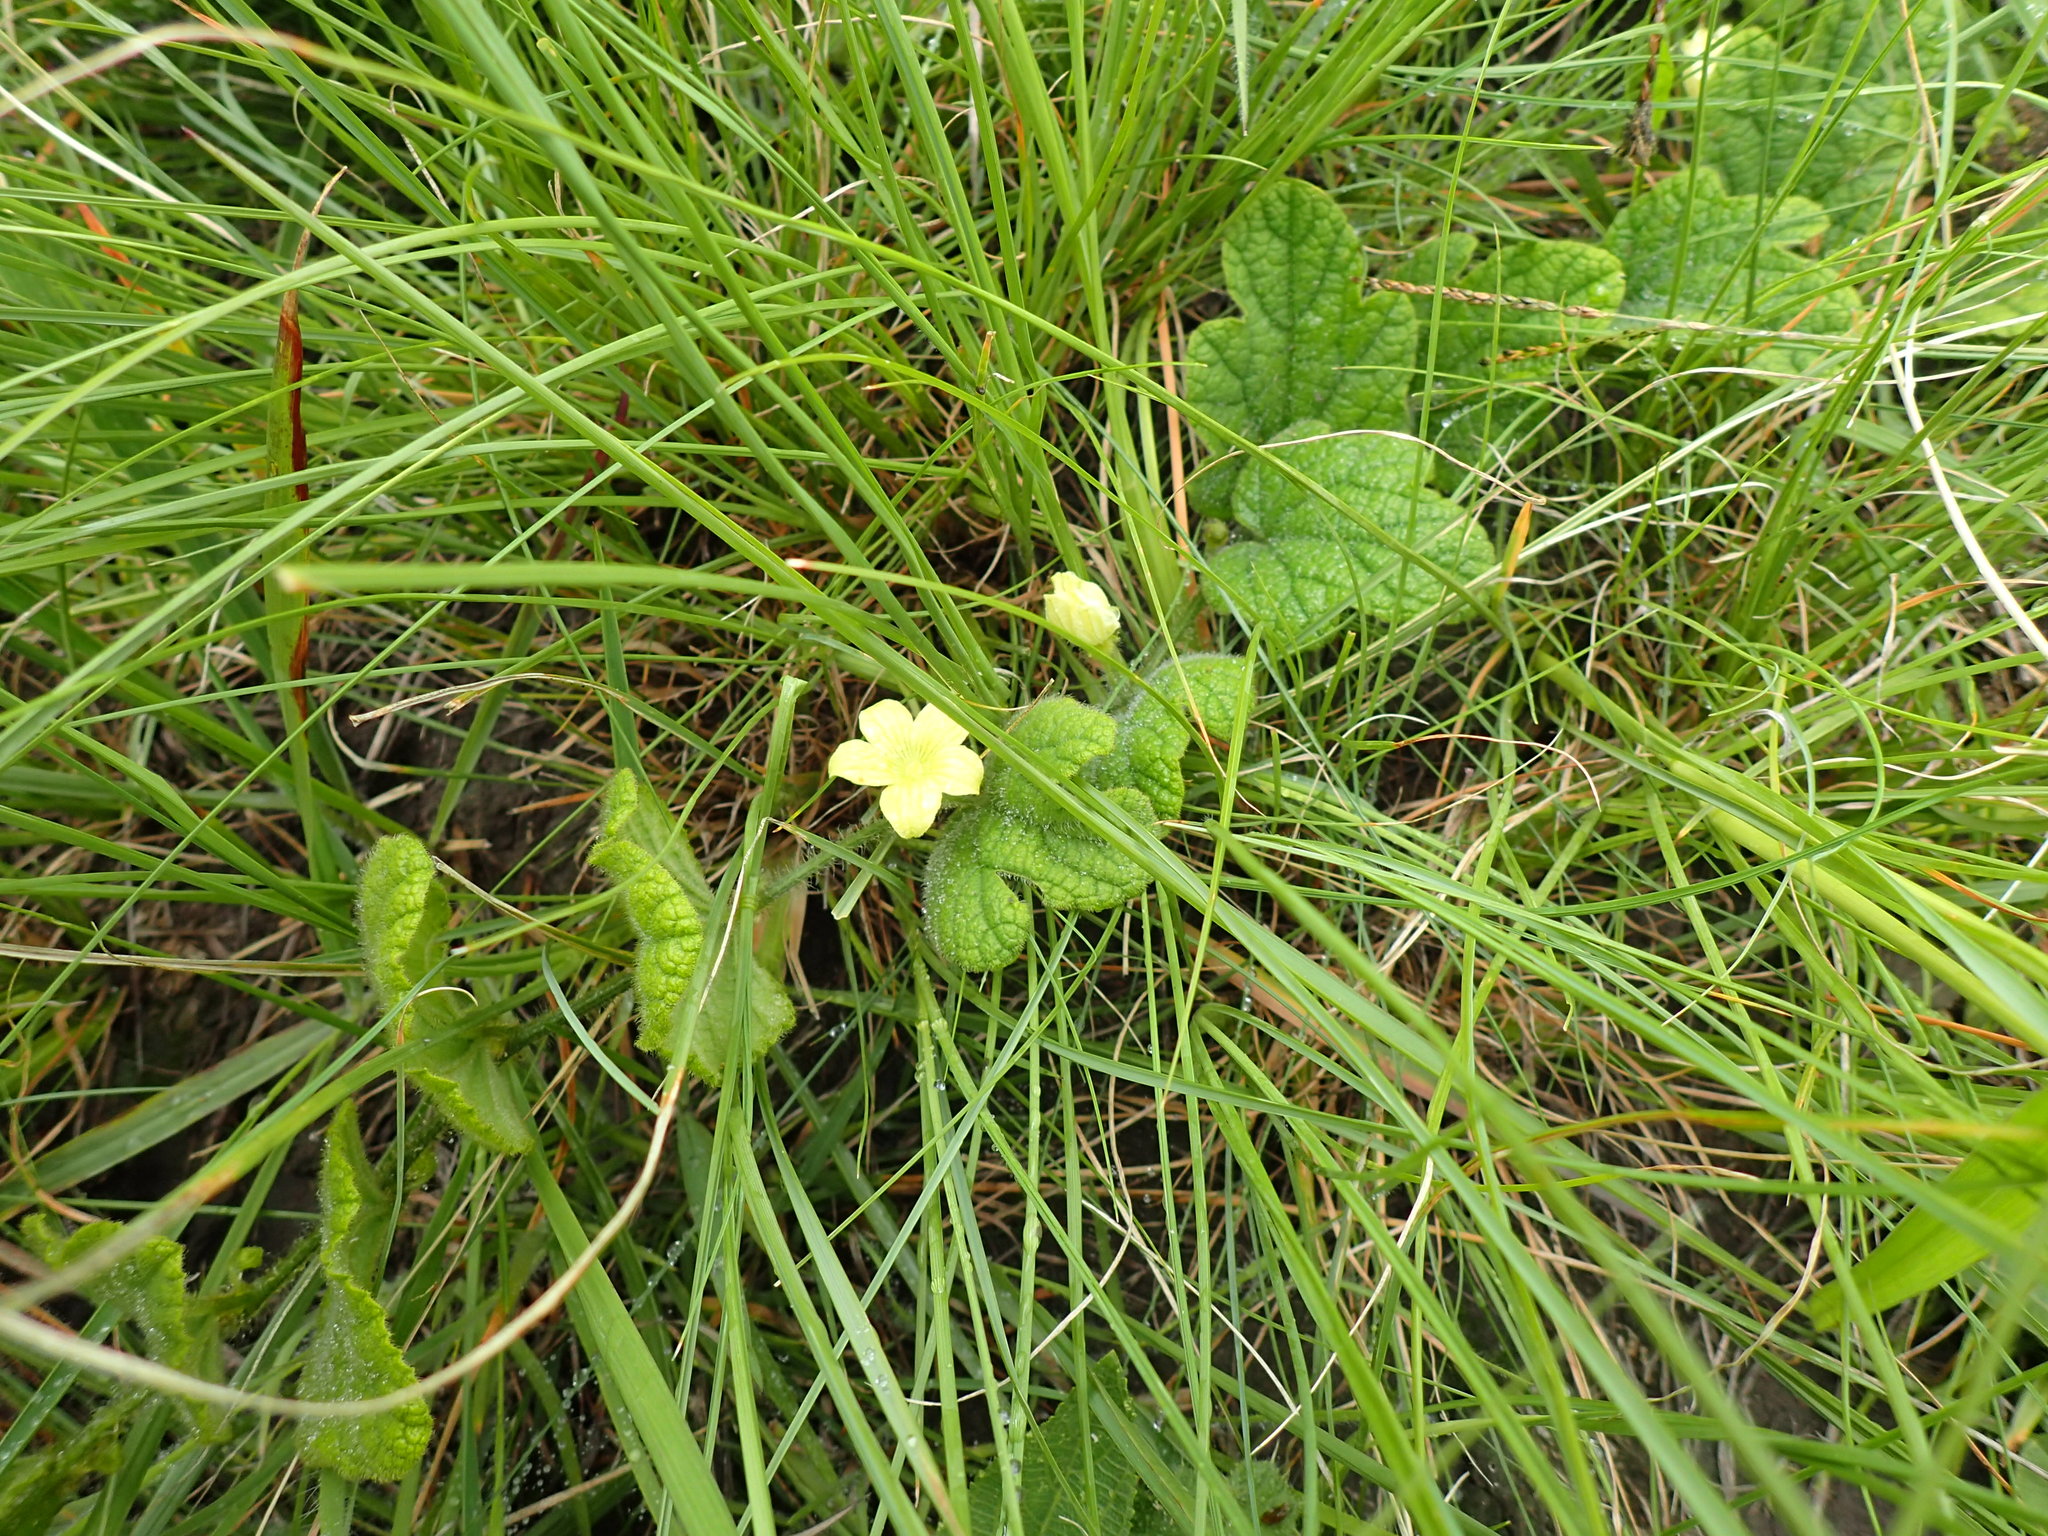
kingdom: Plantae
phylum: Tracheophyta
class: Magnoliopsida
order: Cucurbitales
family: Cucurbitaceae
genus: Cucumis
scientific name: Cucumis hirsutus
